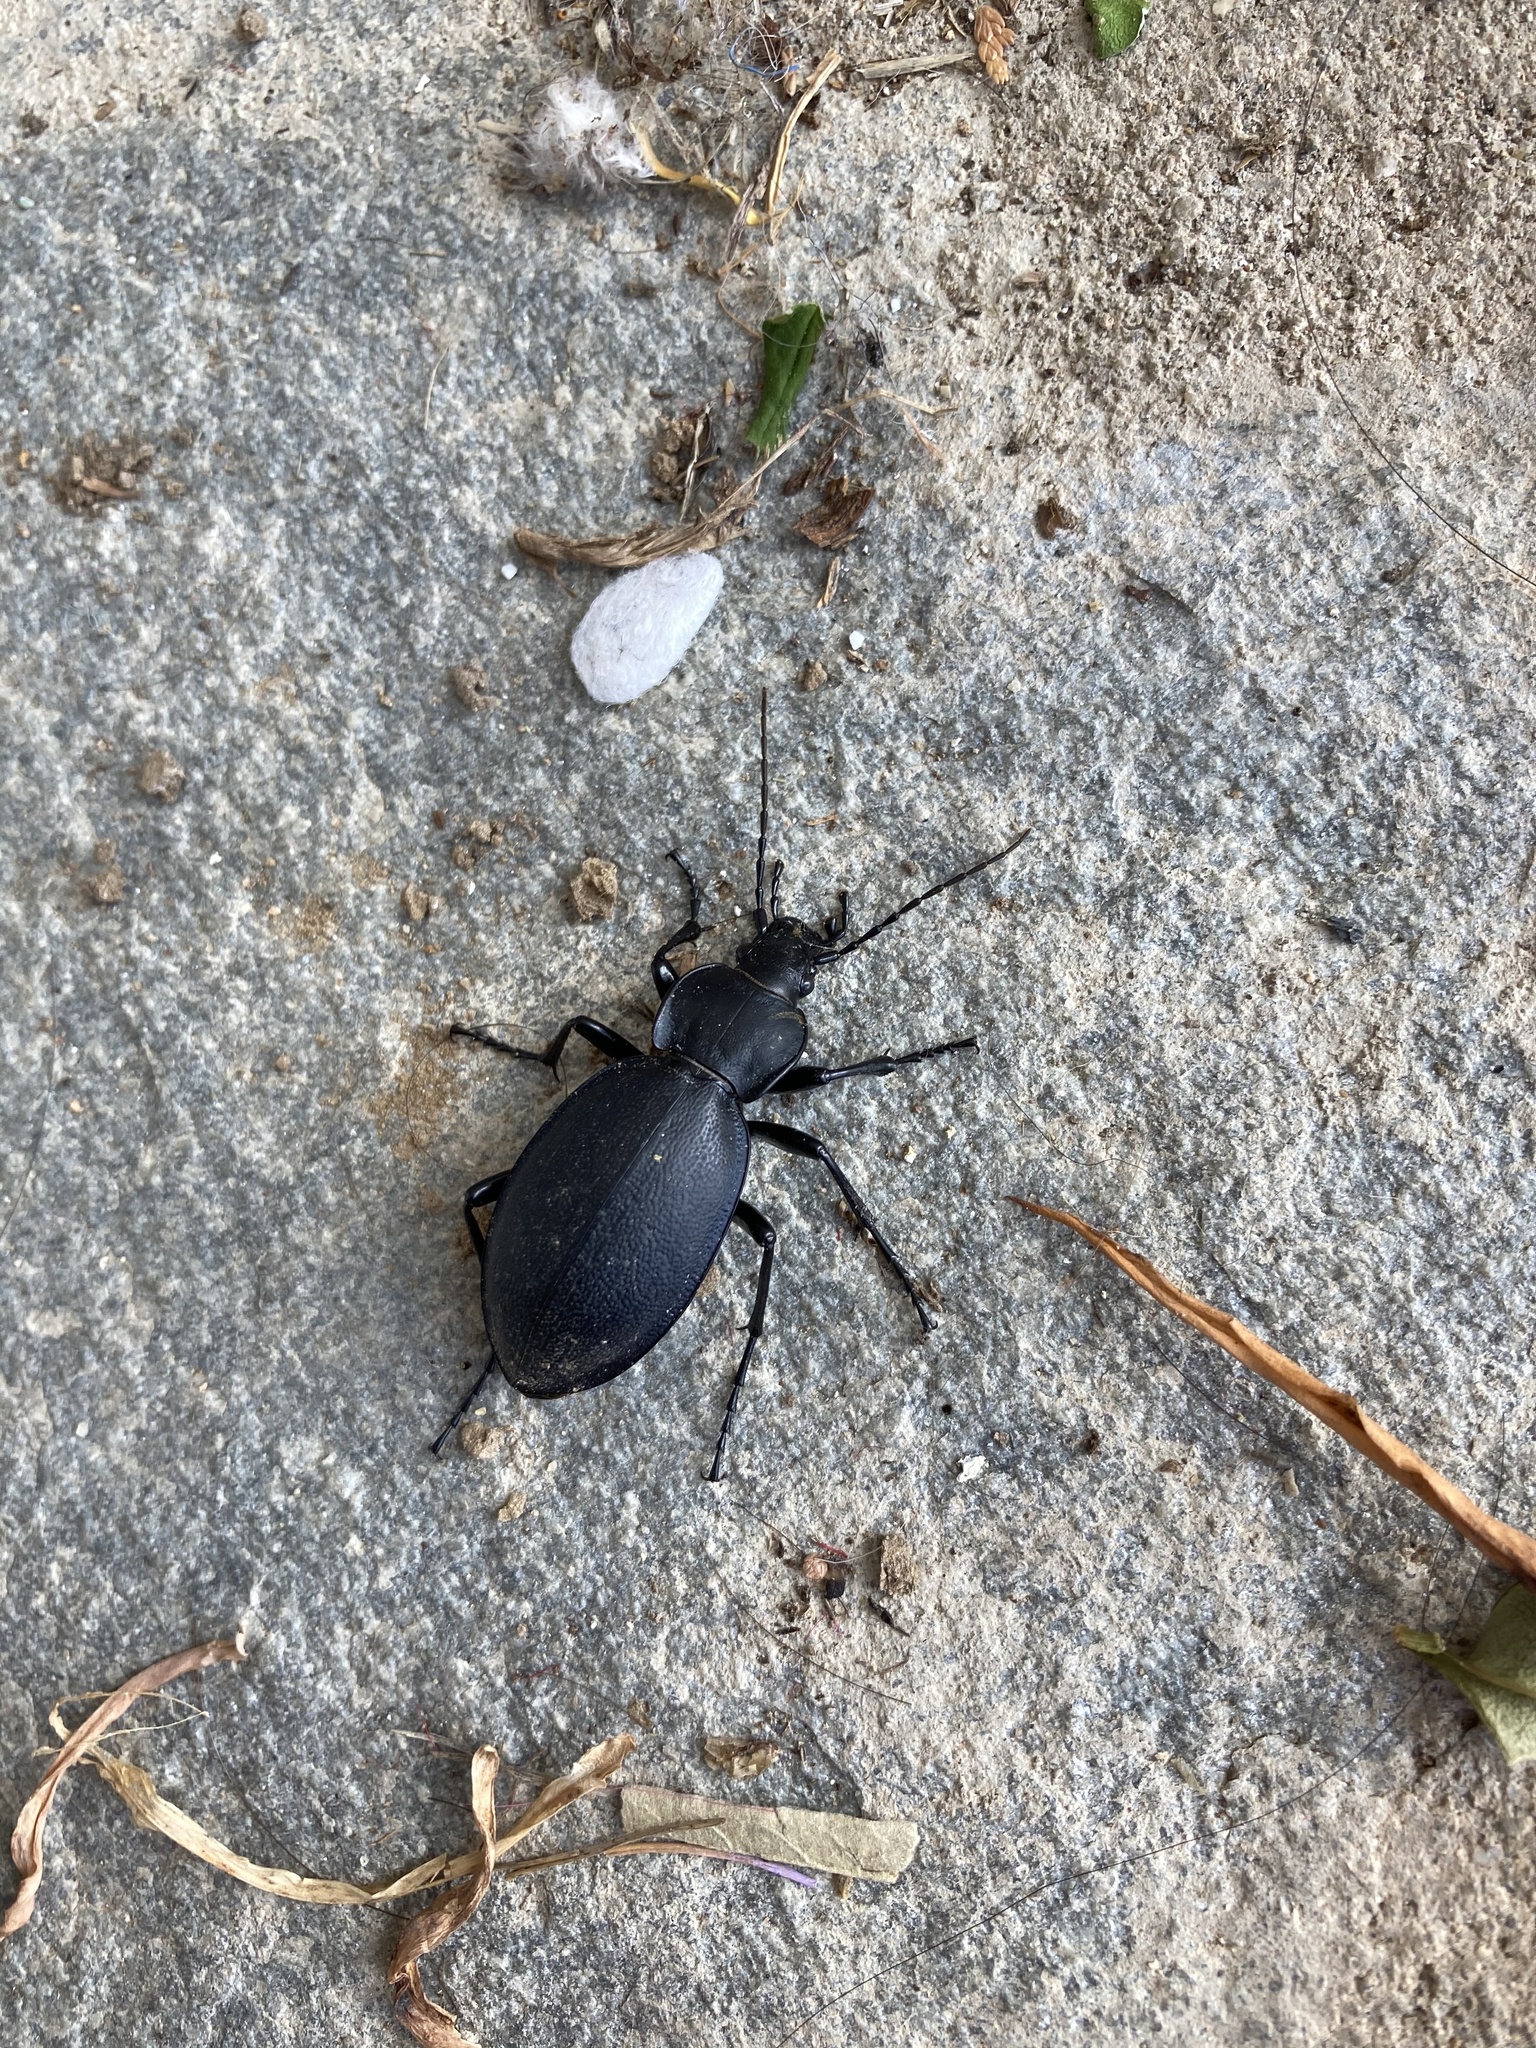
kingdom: Animalia
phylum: Arthropoda
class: Insecta
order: Coleoptera
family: Carabidae
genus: Carabus
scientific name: Carabus coriaceus
